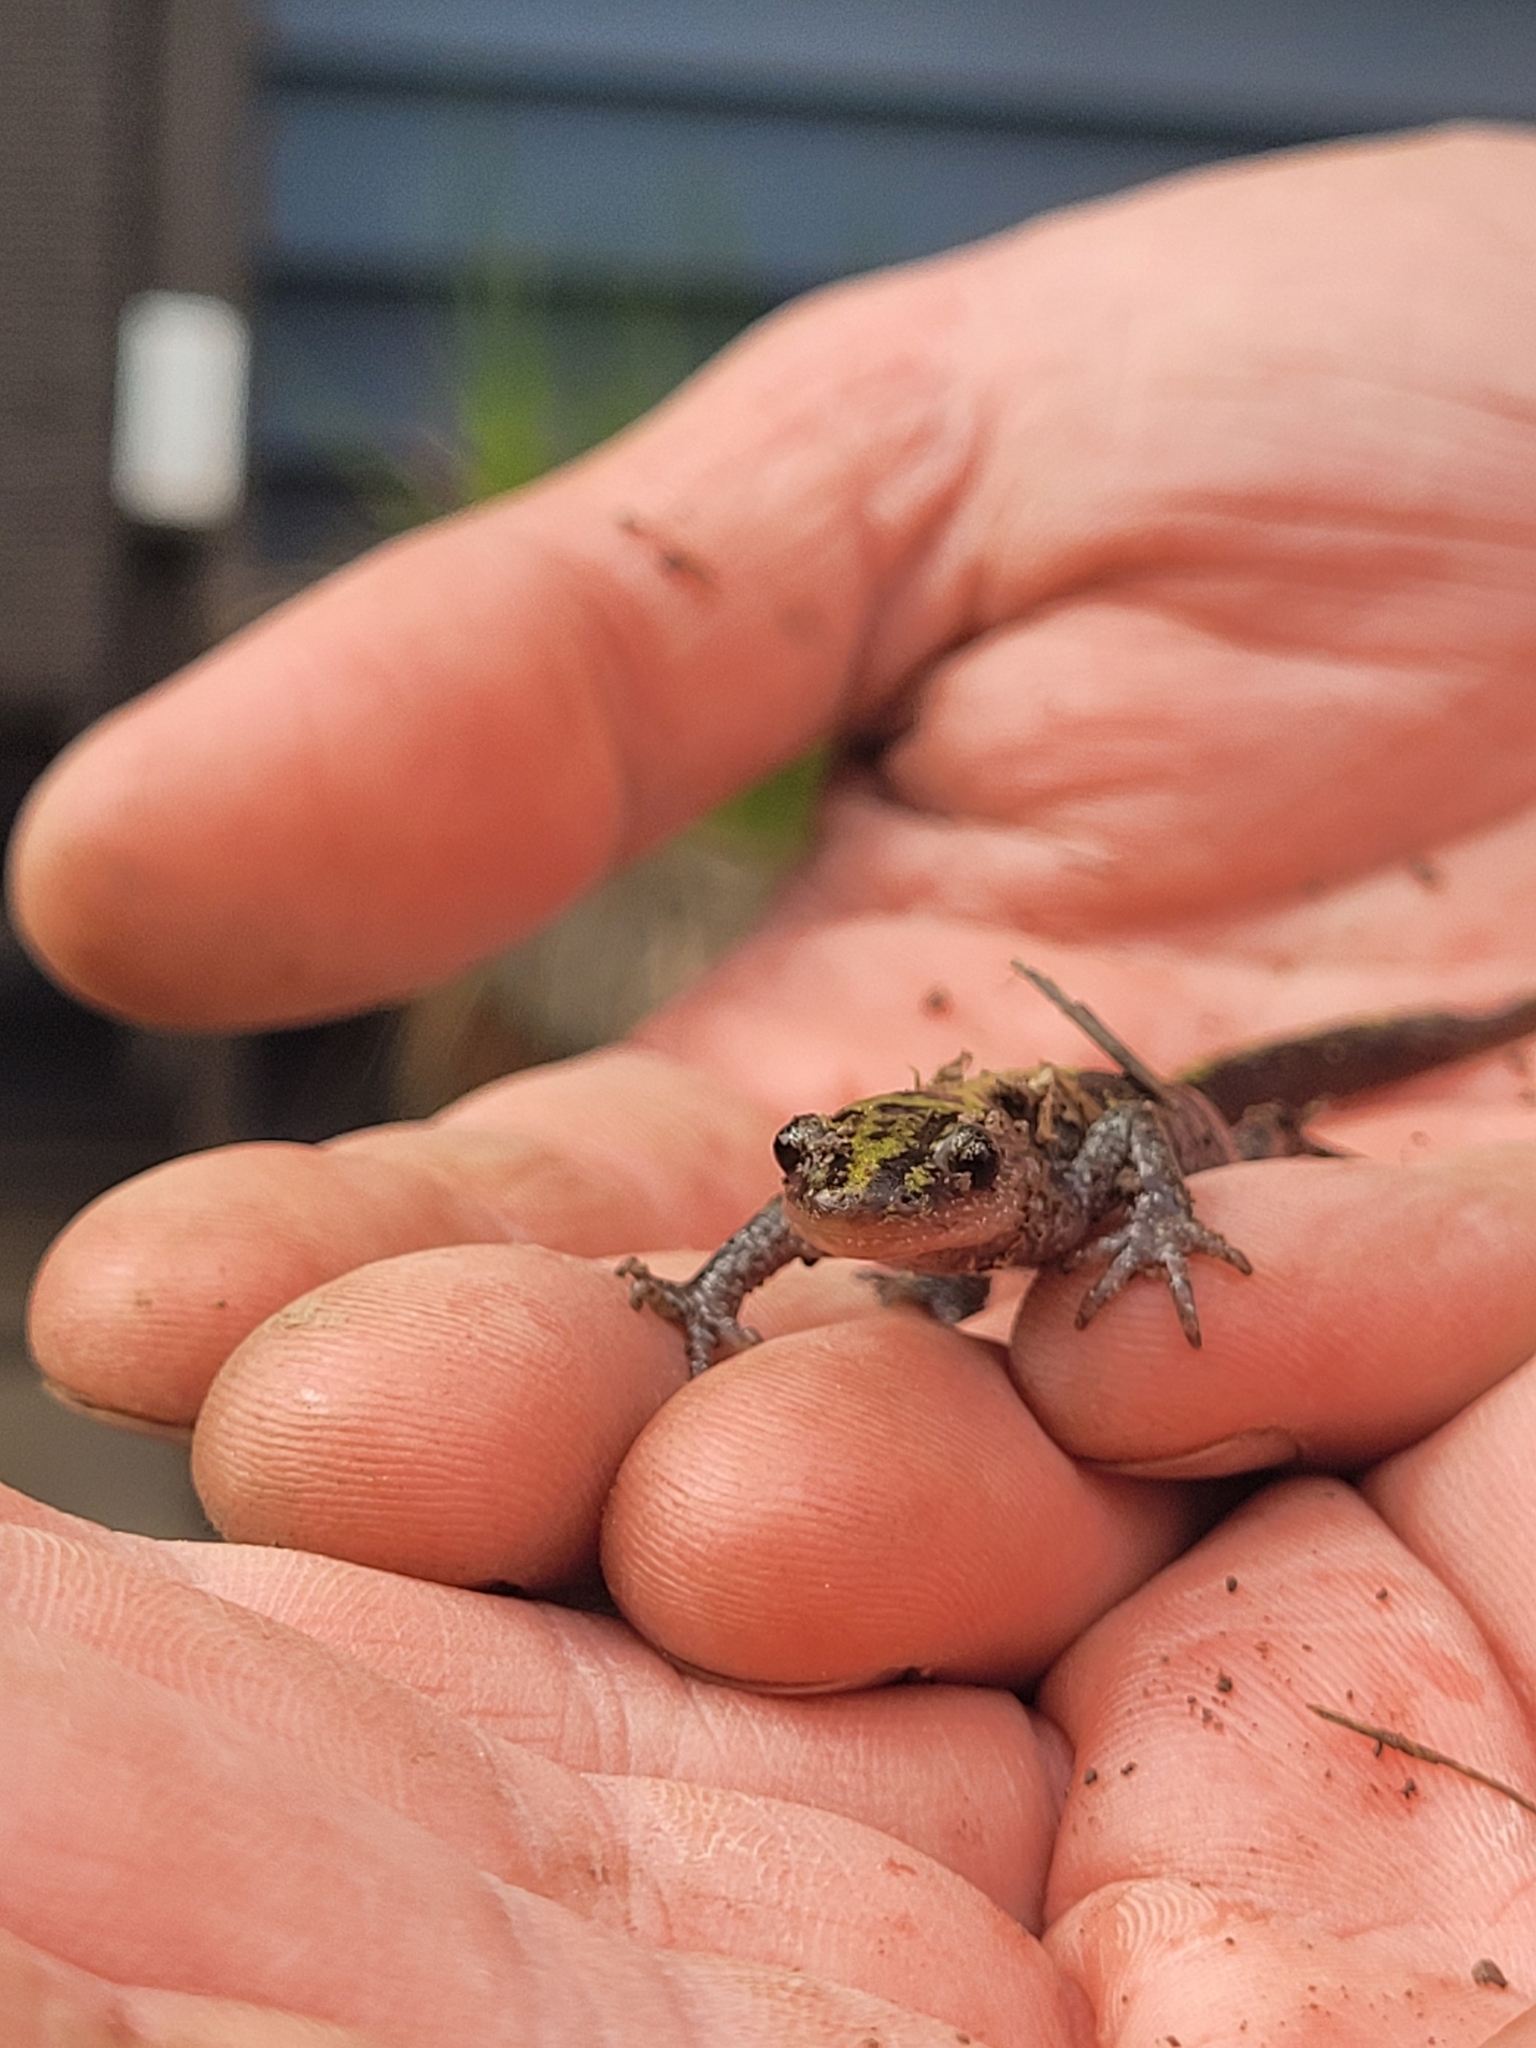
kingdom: Animalia
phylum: Chordata
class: Amphibia
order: Caudata
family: Ambystomatidae
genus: Ambystoma
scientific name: Ambystoma macrodactylum
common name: Long-toed salamander
